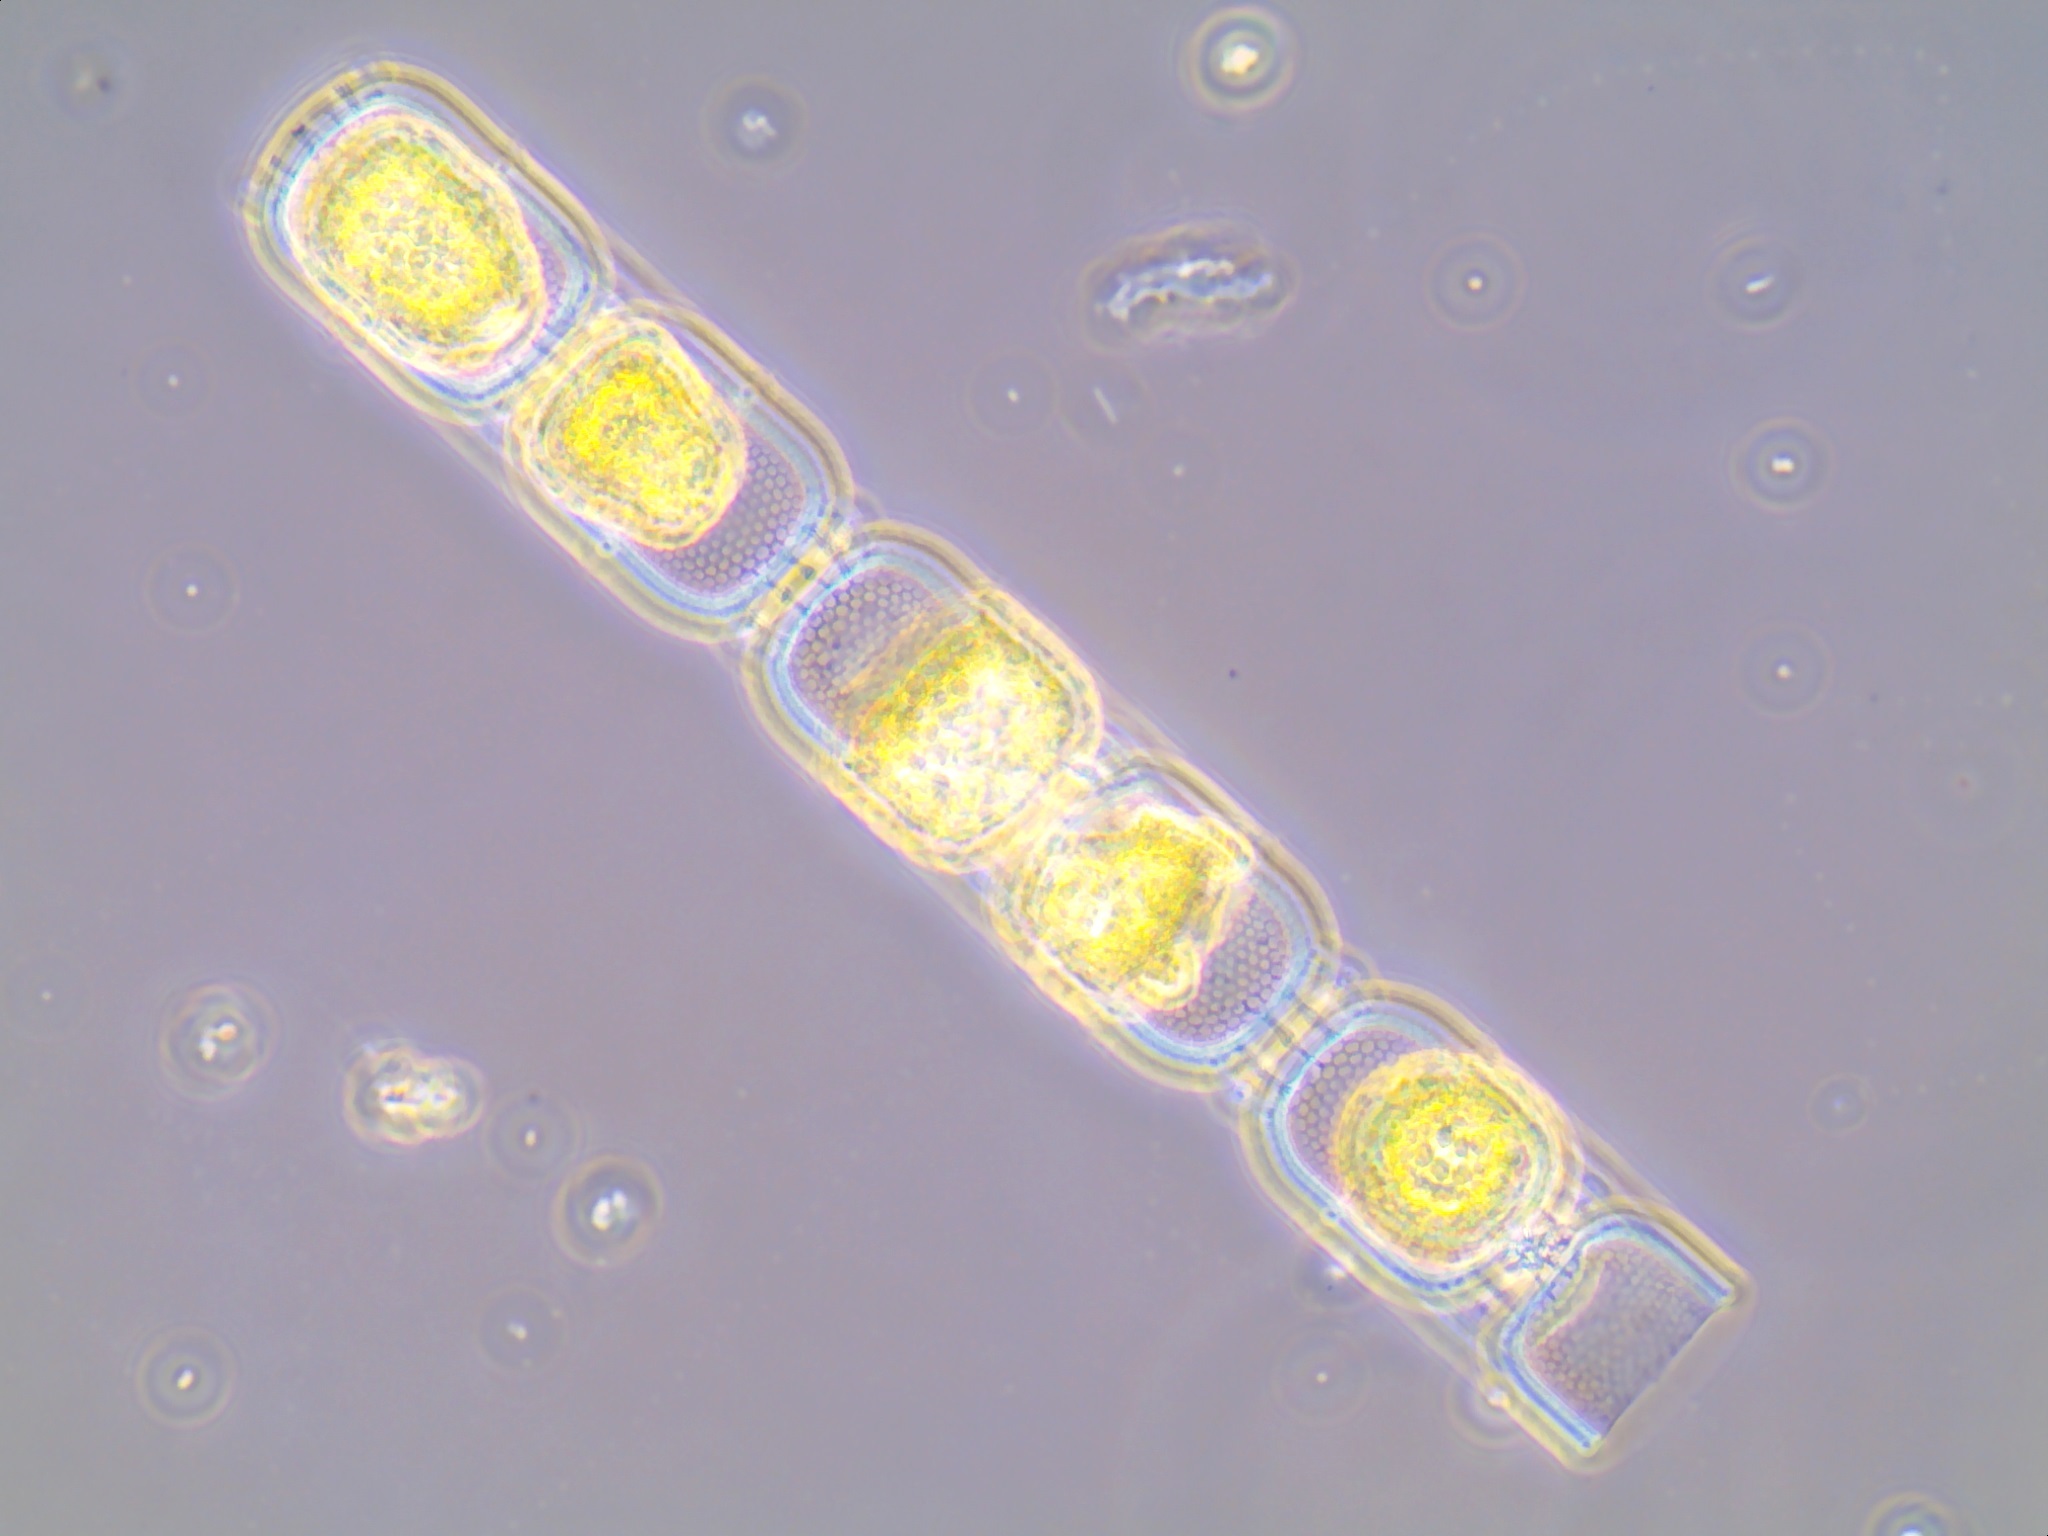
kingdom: Chromista
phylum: Ochrophyta
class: Bacillariophyceae
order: Melosirales
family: Stephanopyxidaceae
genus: Eupyxidicula
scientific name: Eupyxidicula turris
